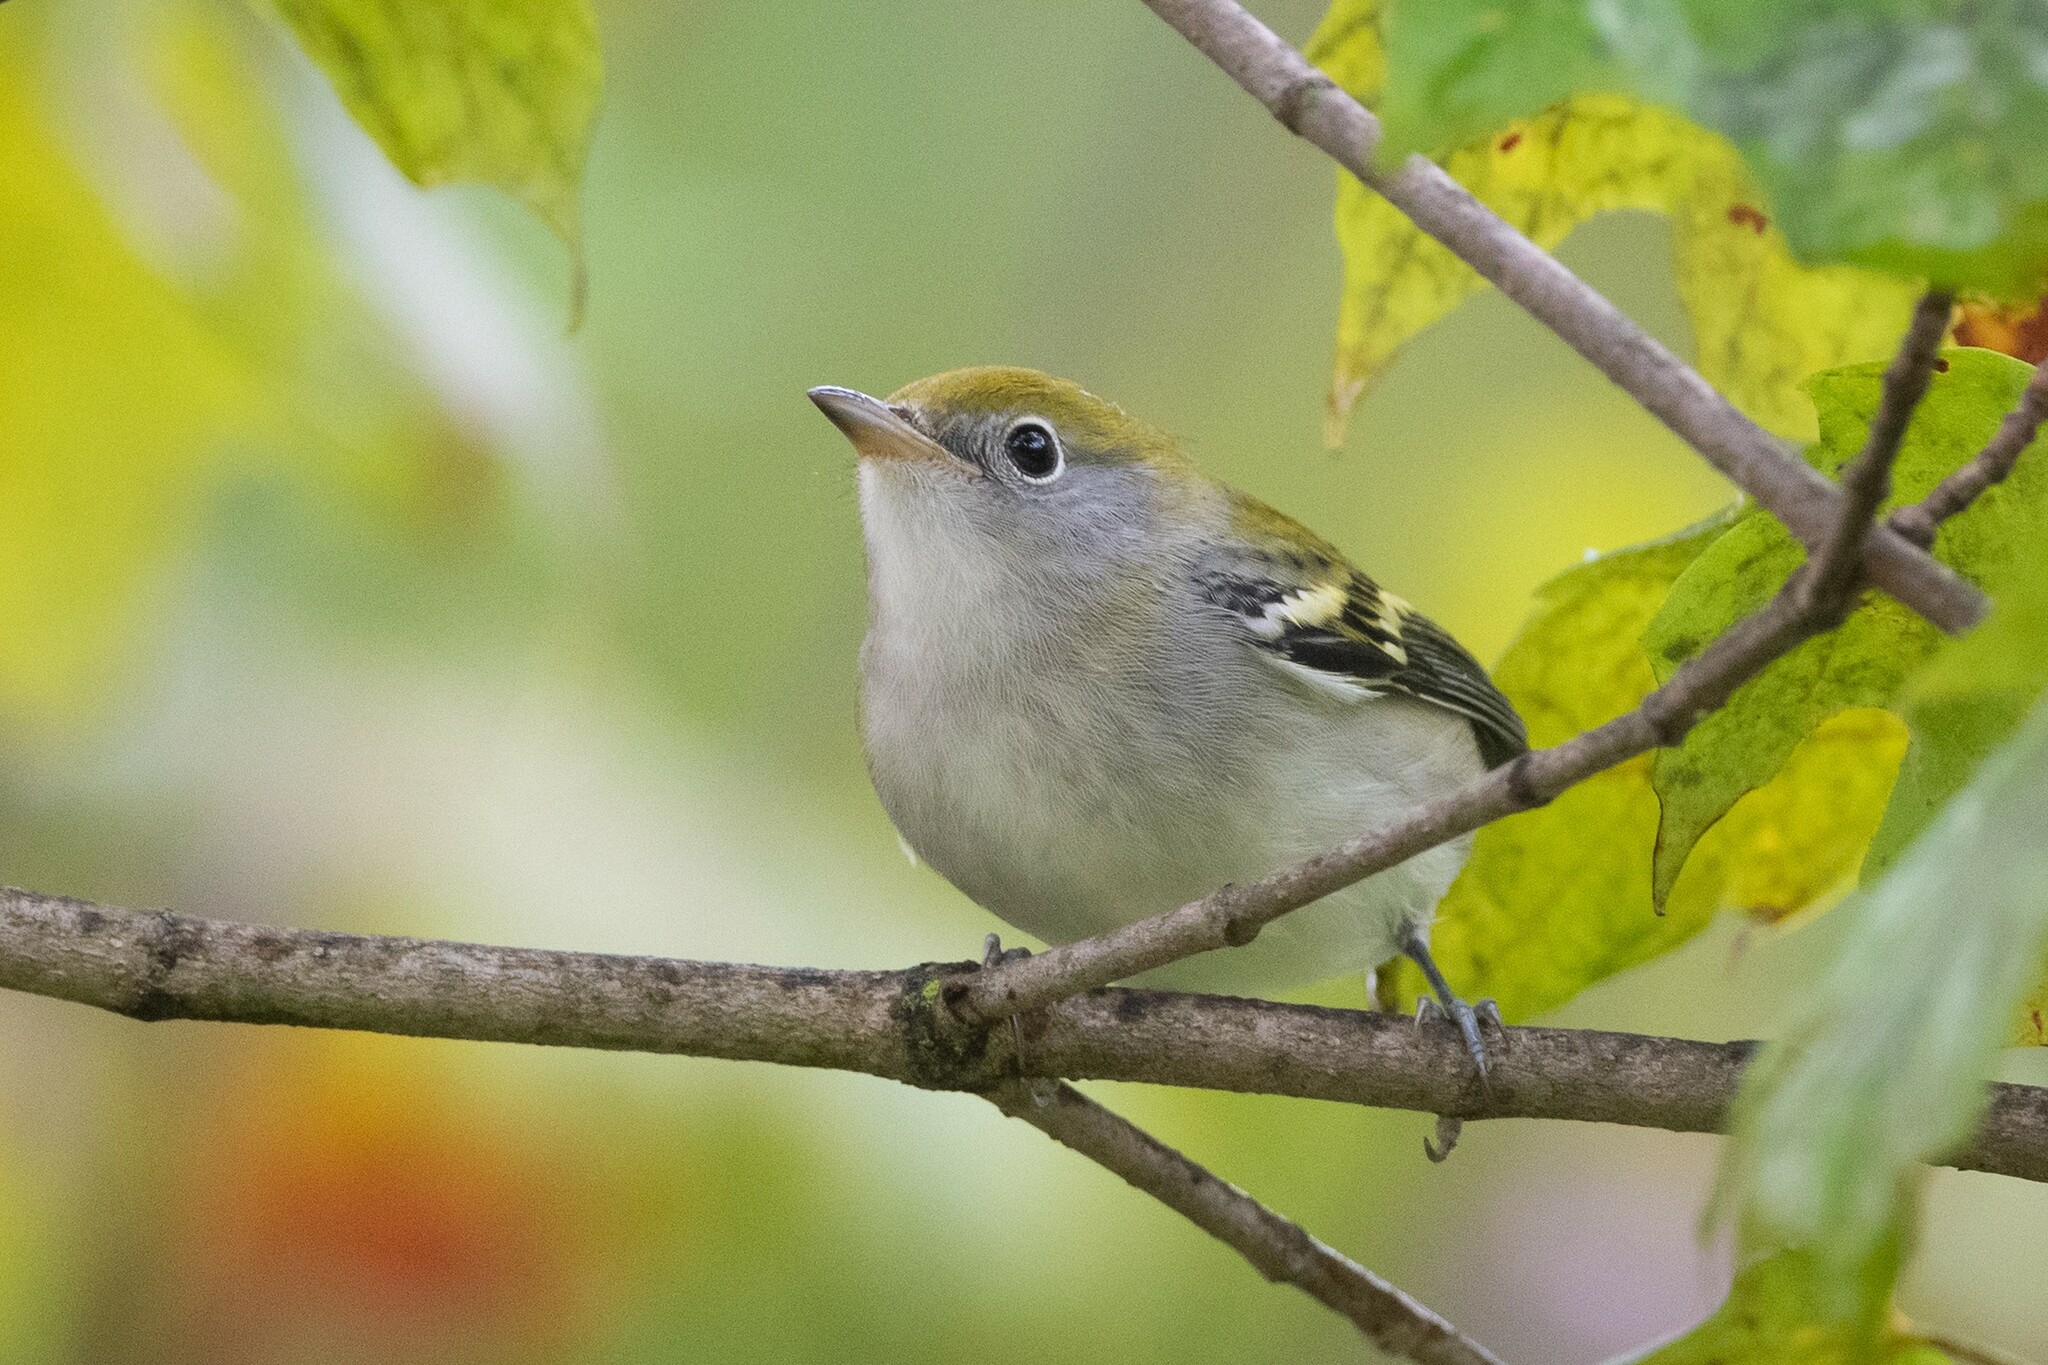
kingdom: Animalia
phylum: Chordata
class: Aves
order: Passeriformes
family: Parulidae
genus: Setophaga
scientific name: Setophaga pensylvanica
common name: Chestnut-sided warbler
